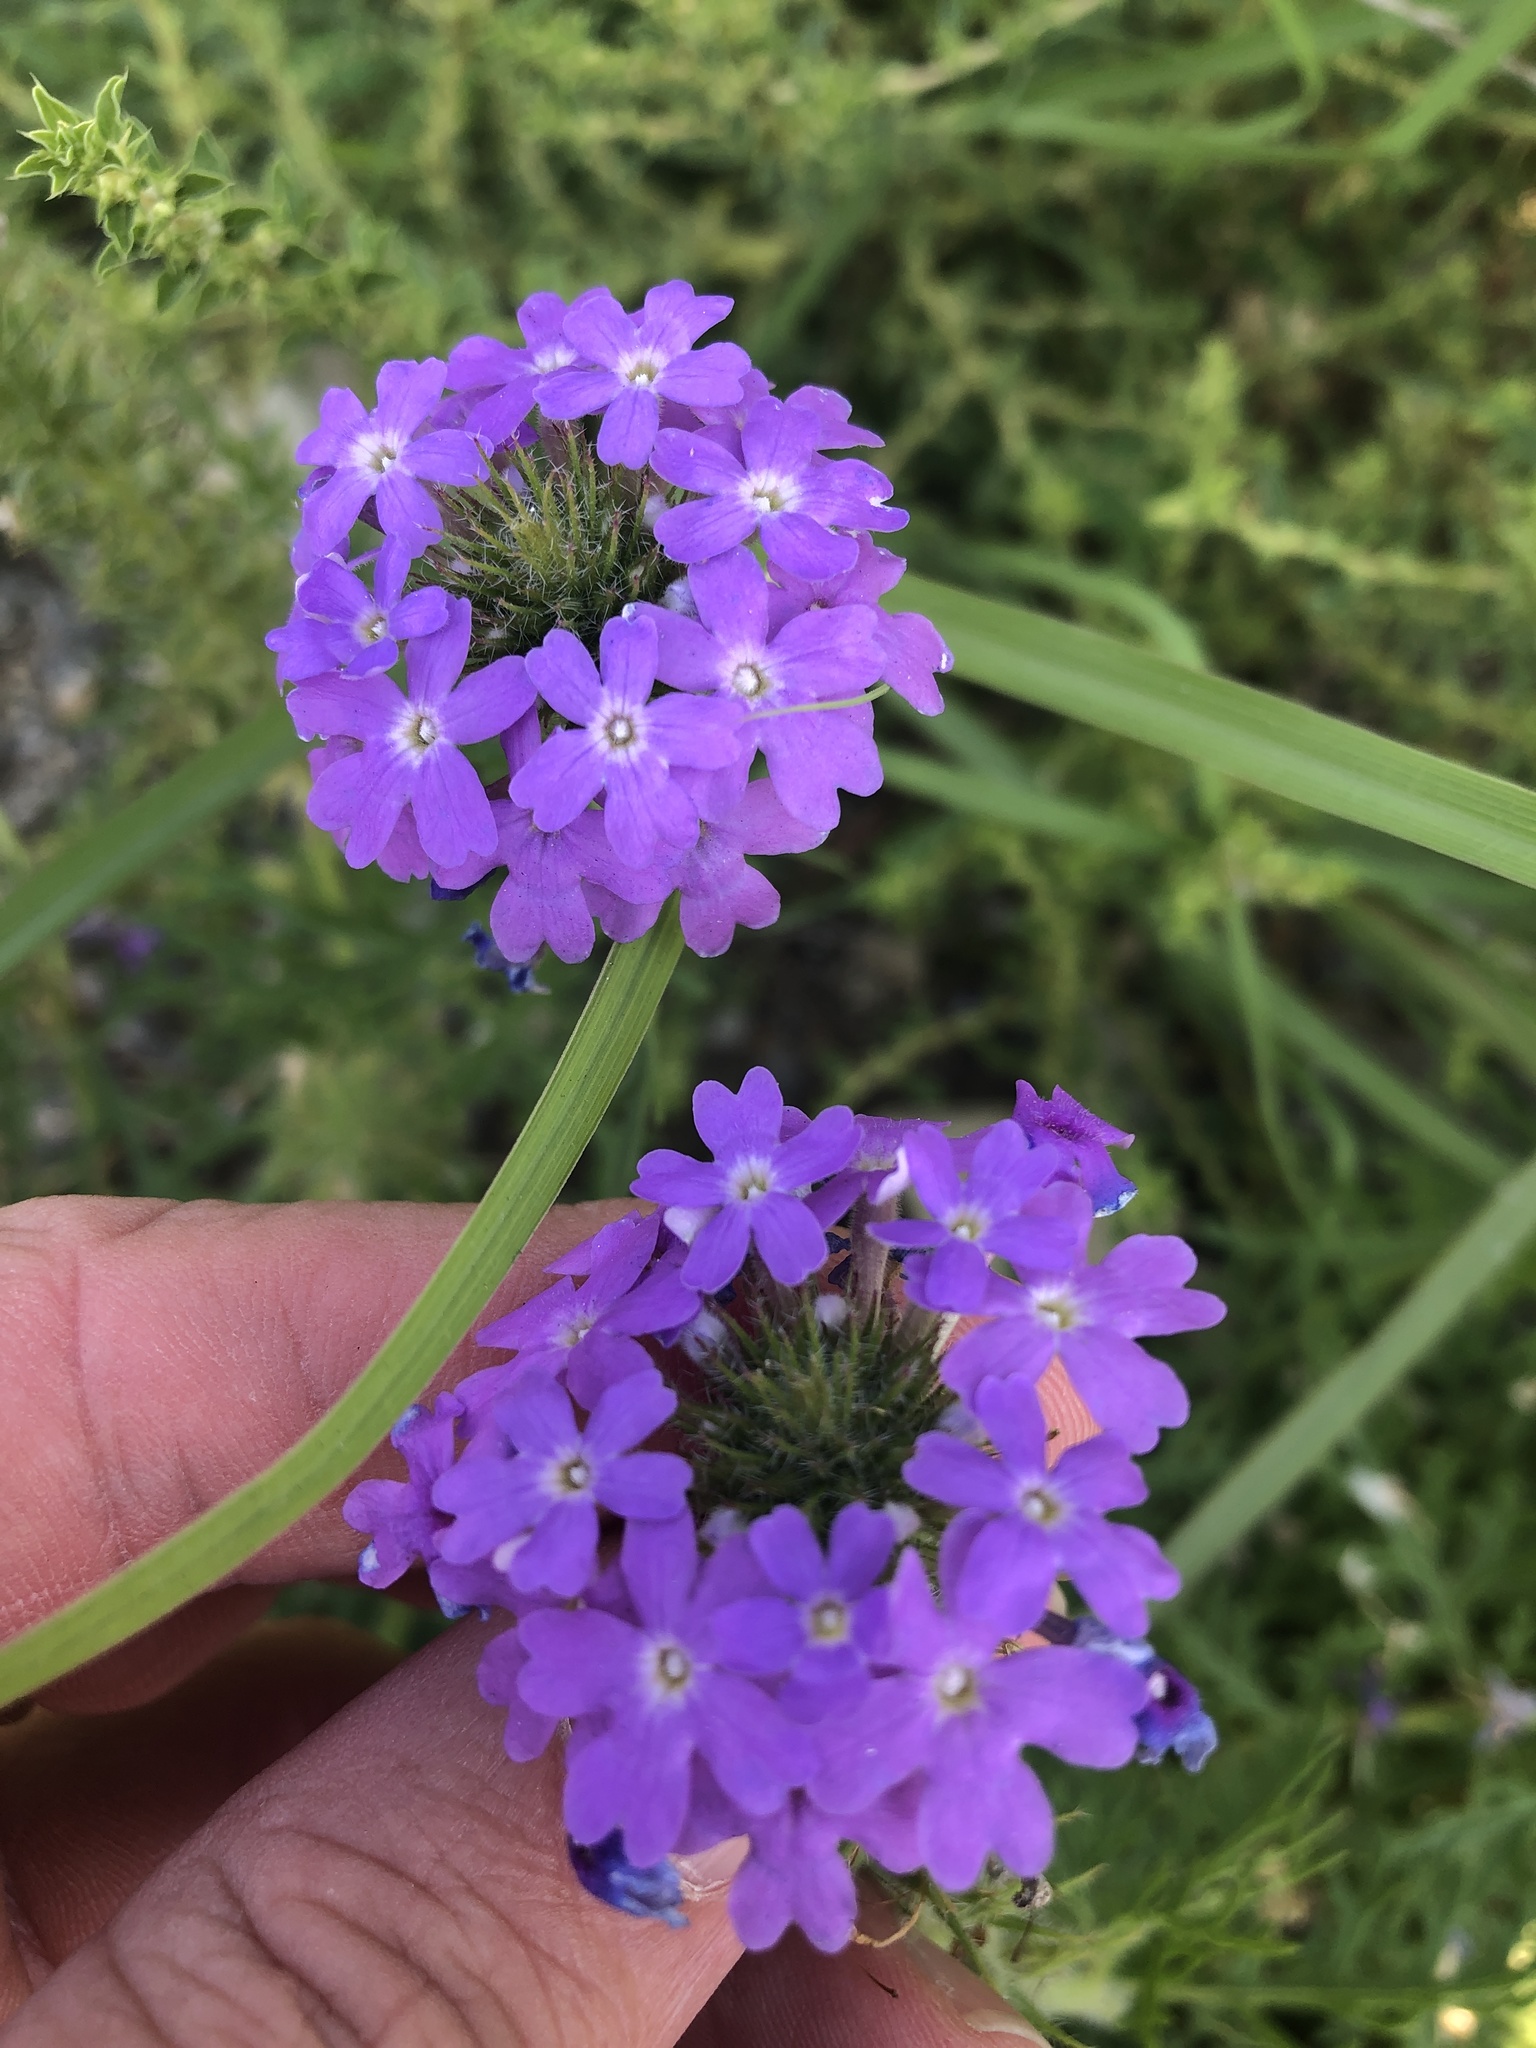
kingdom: Plantae
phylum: Tracheophyta
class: Magnoliopsida
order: Lamiales
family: Verbenaceae
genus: Verbena
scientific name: Verbena bipinnatifida
